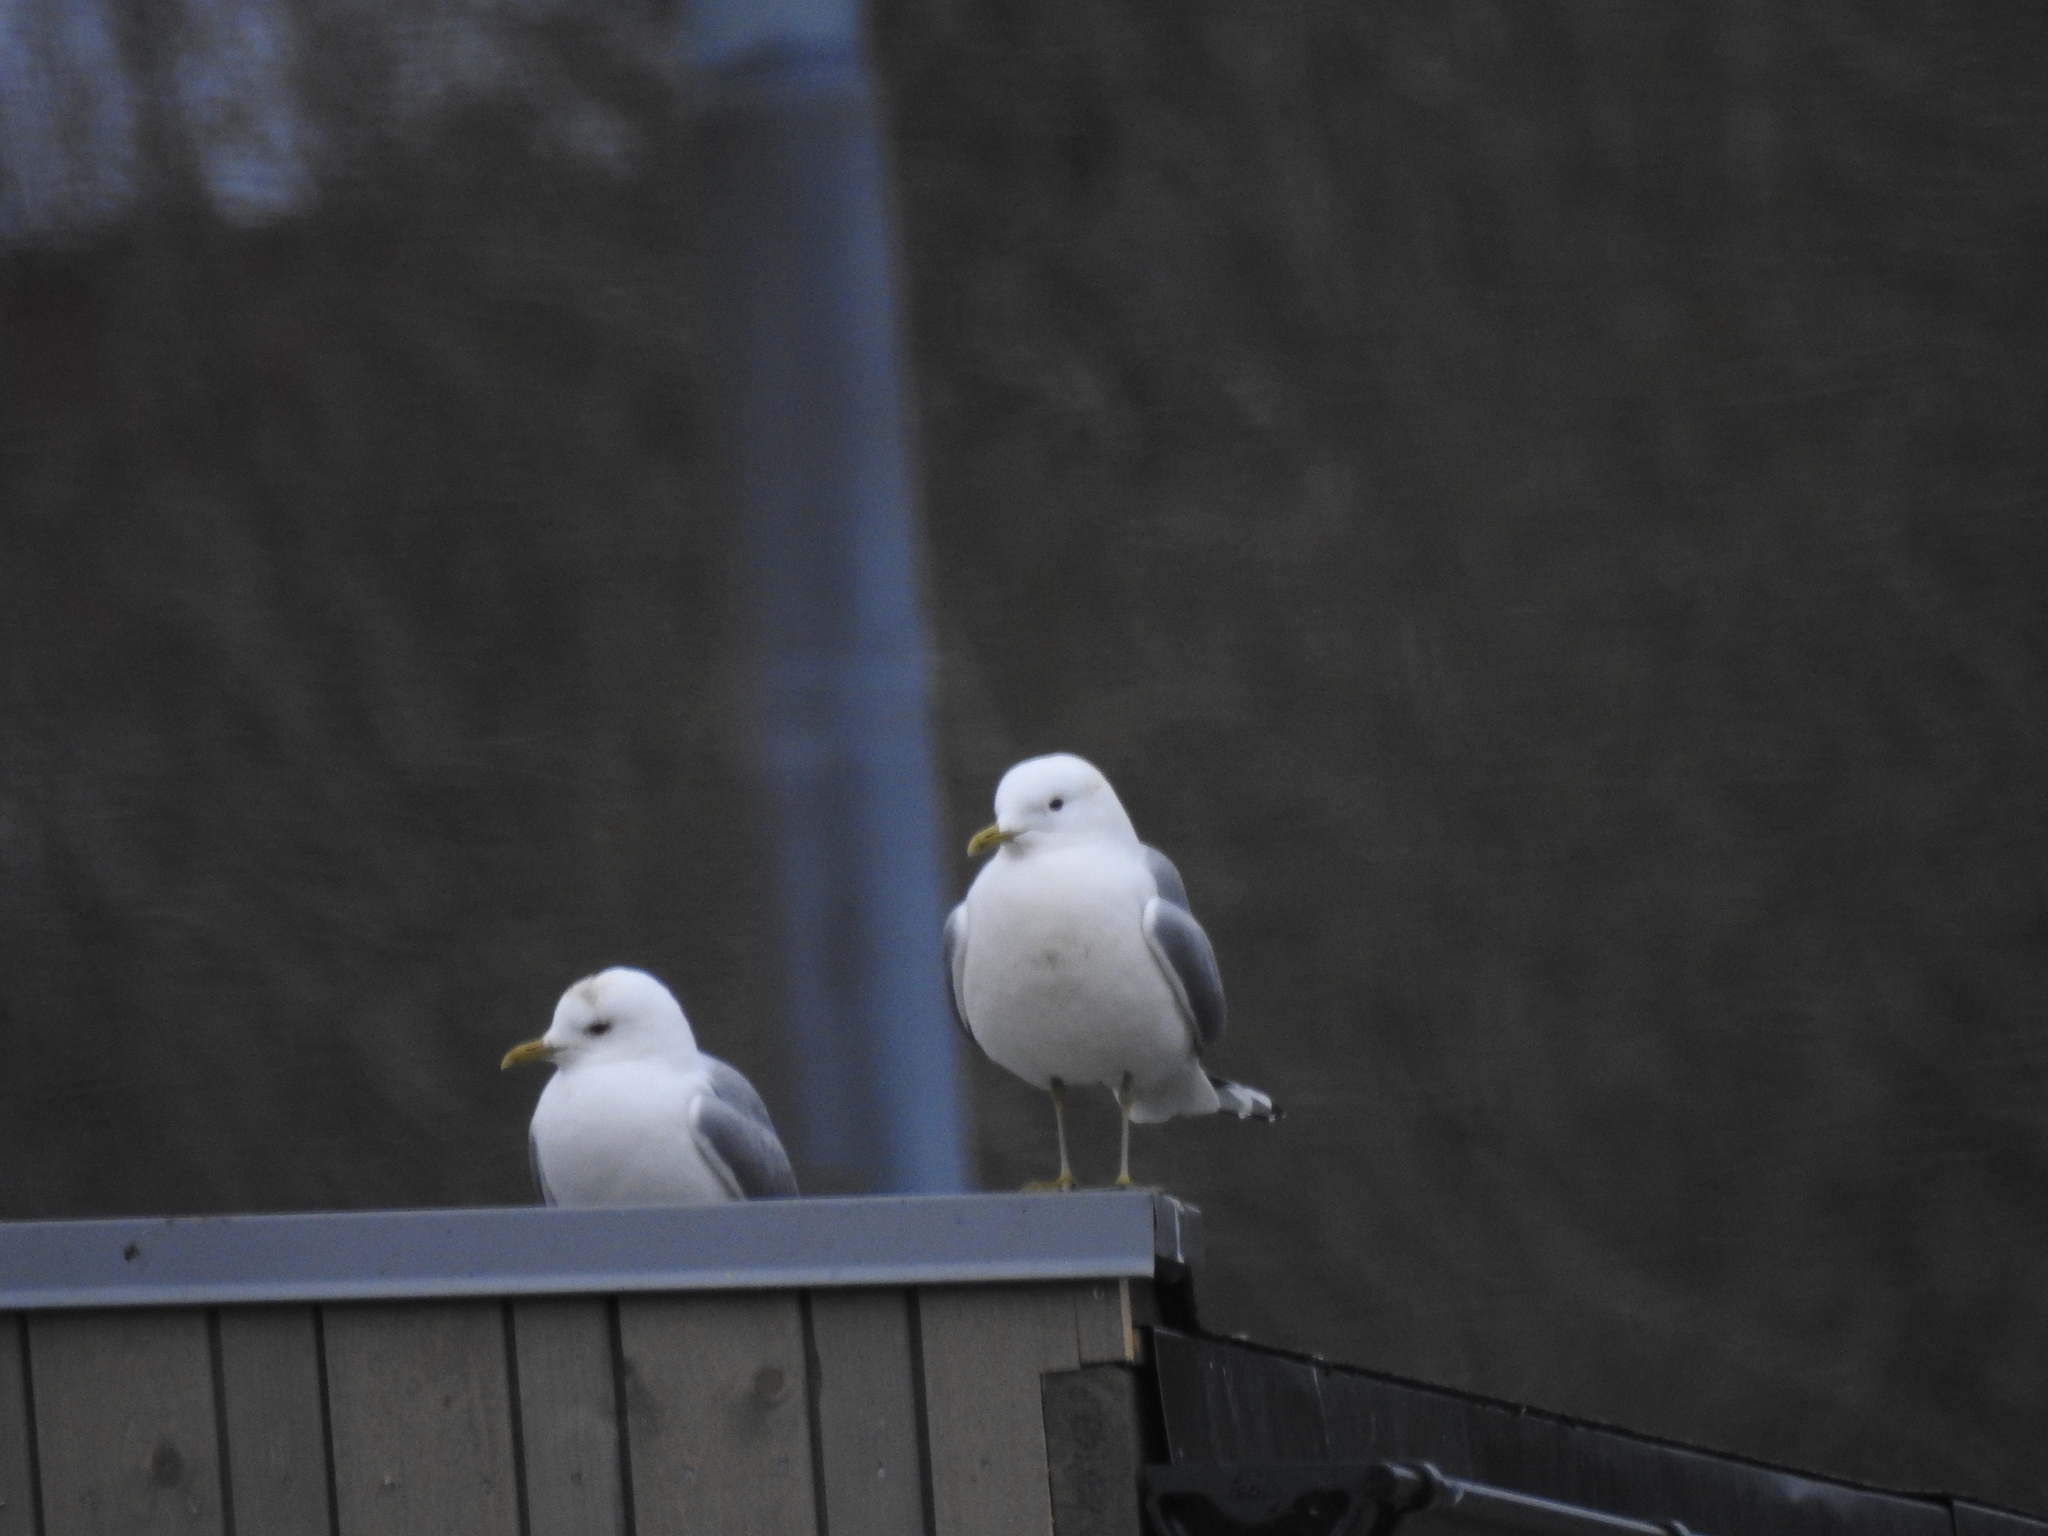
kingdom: Animalia
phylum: Chordata
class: Aves
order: Charadriiformes
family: Laridae
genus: Larus
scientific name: Larus canus
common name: Mew gull
